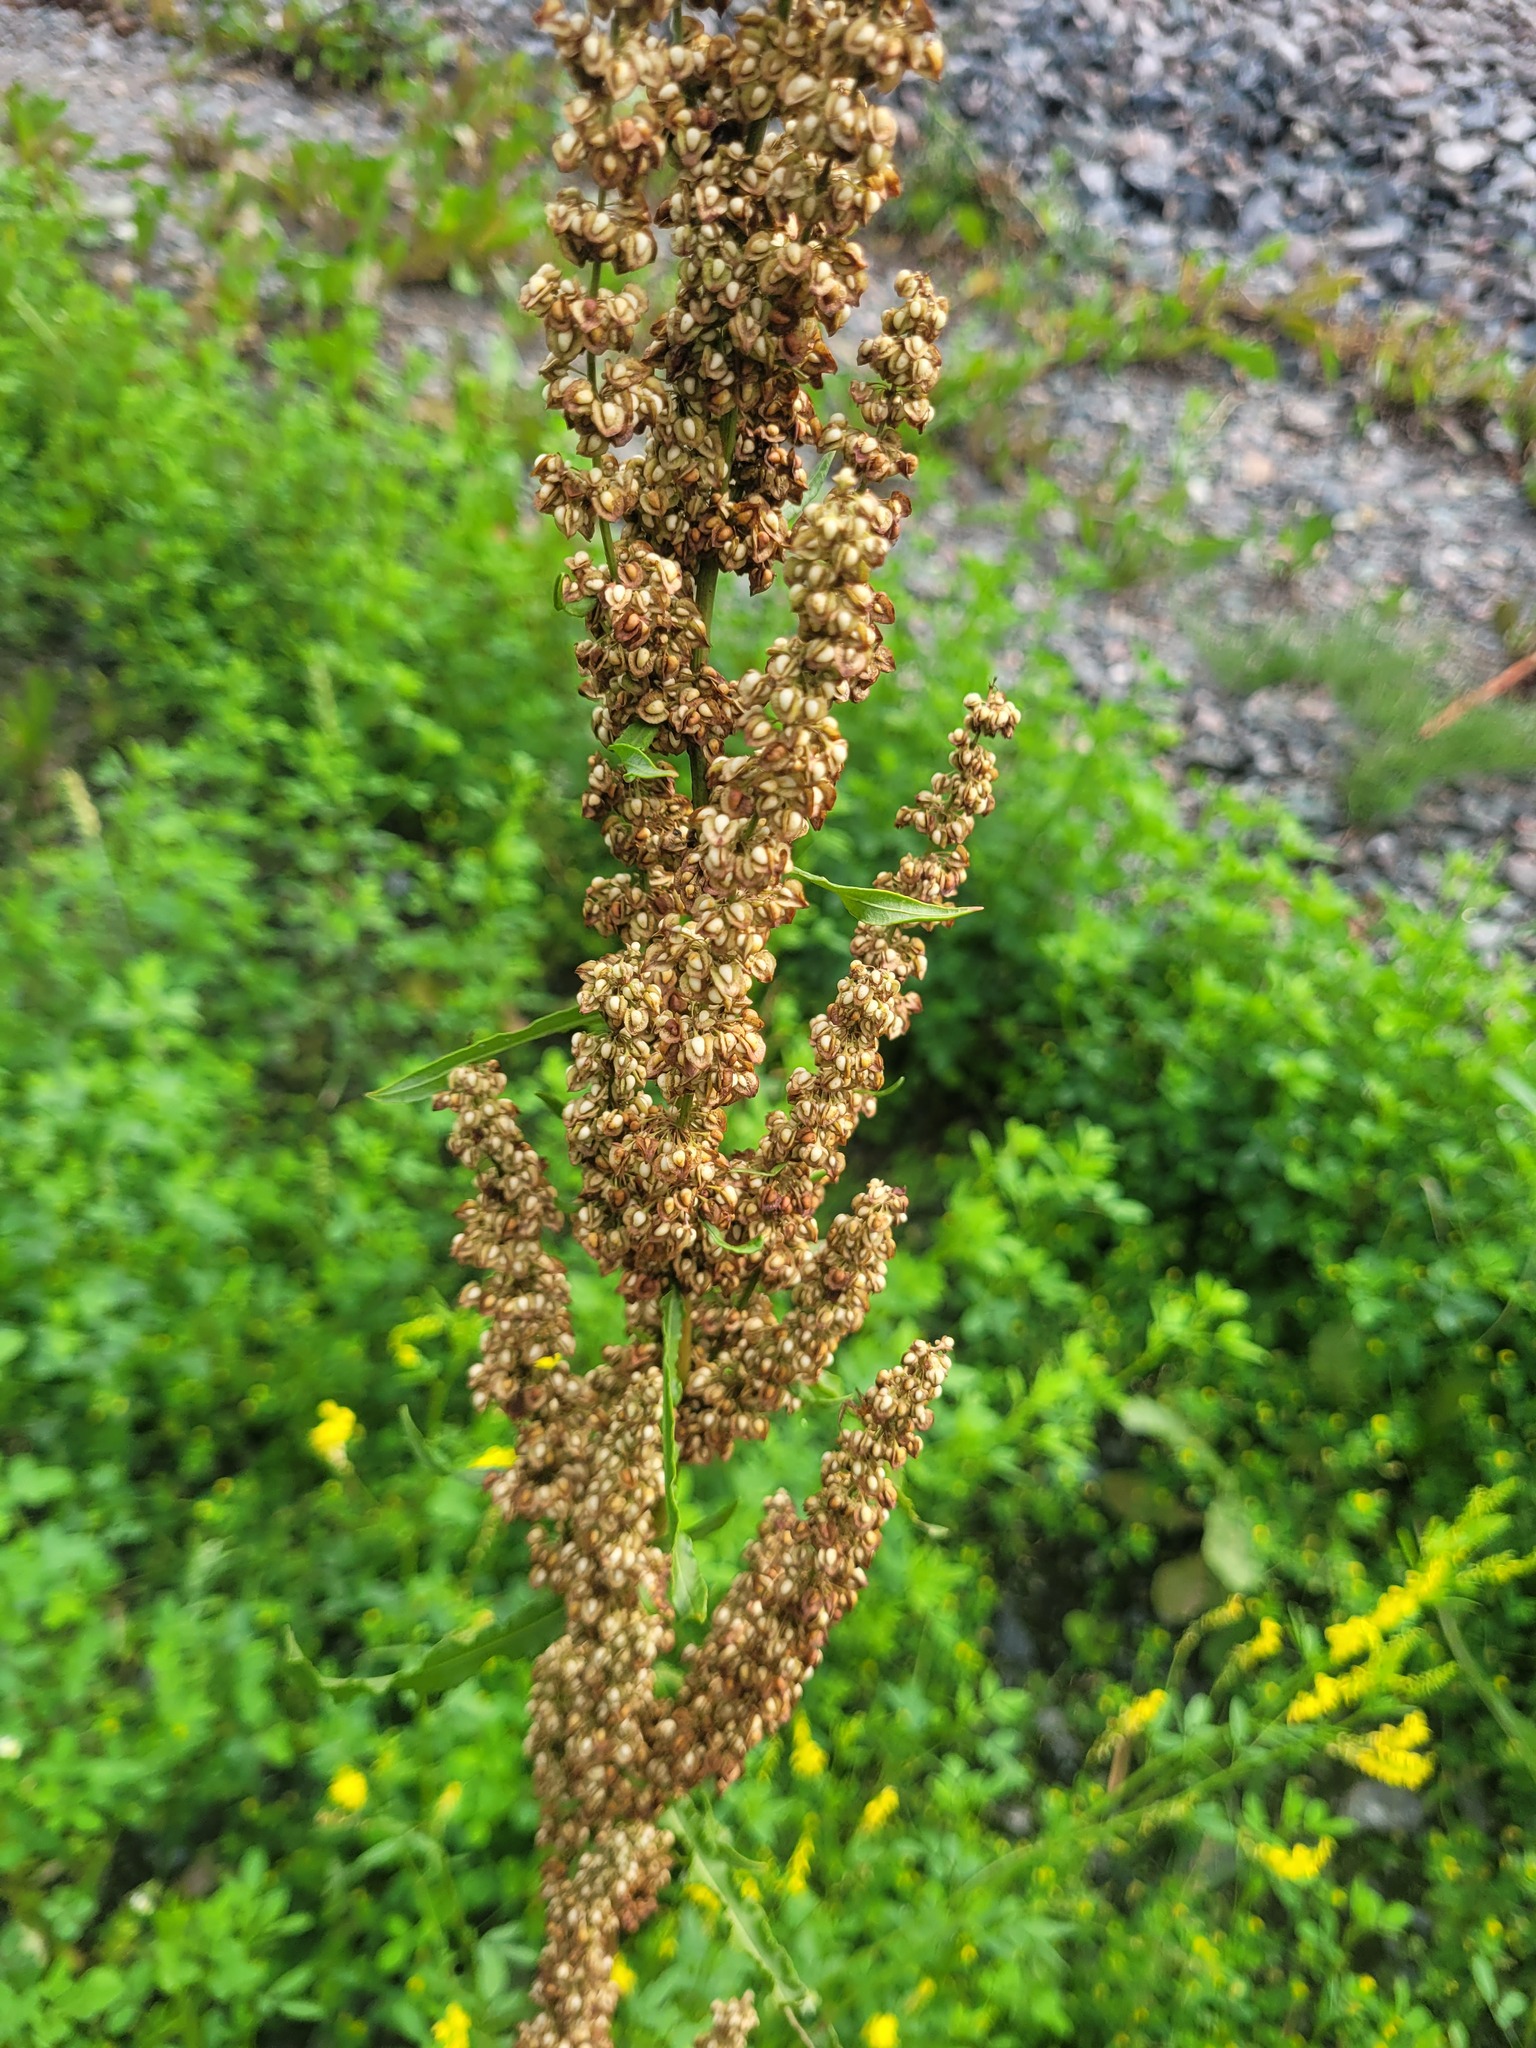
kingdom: Plantae
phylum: Tracheophyta
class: Magnoliopsida
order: Caryophyllales
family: Polygonaceae
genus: Rumex
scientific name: Rumex crispus
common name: Curled dock
